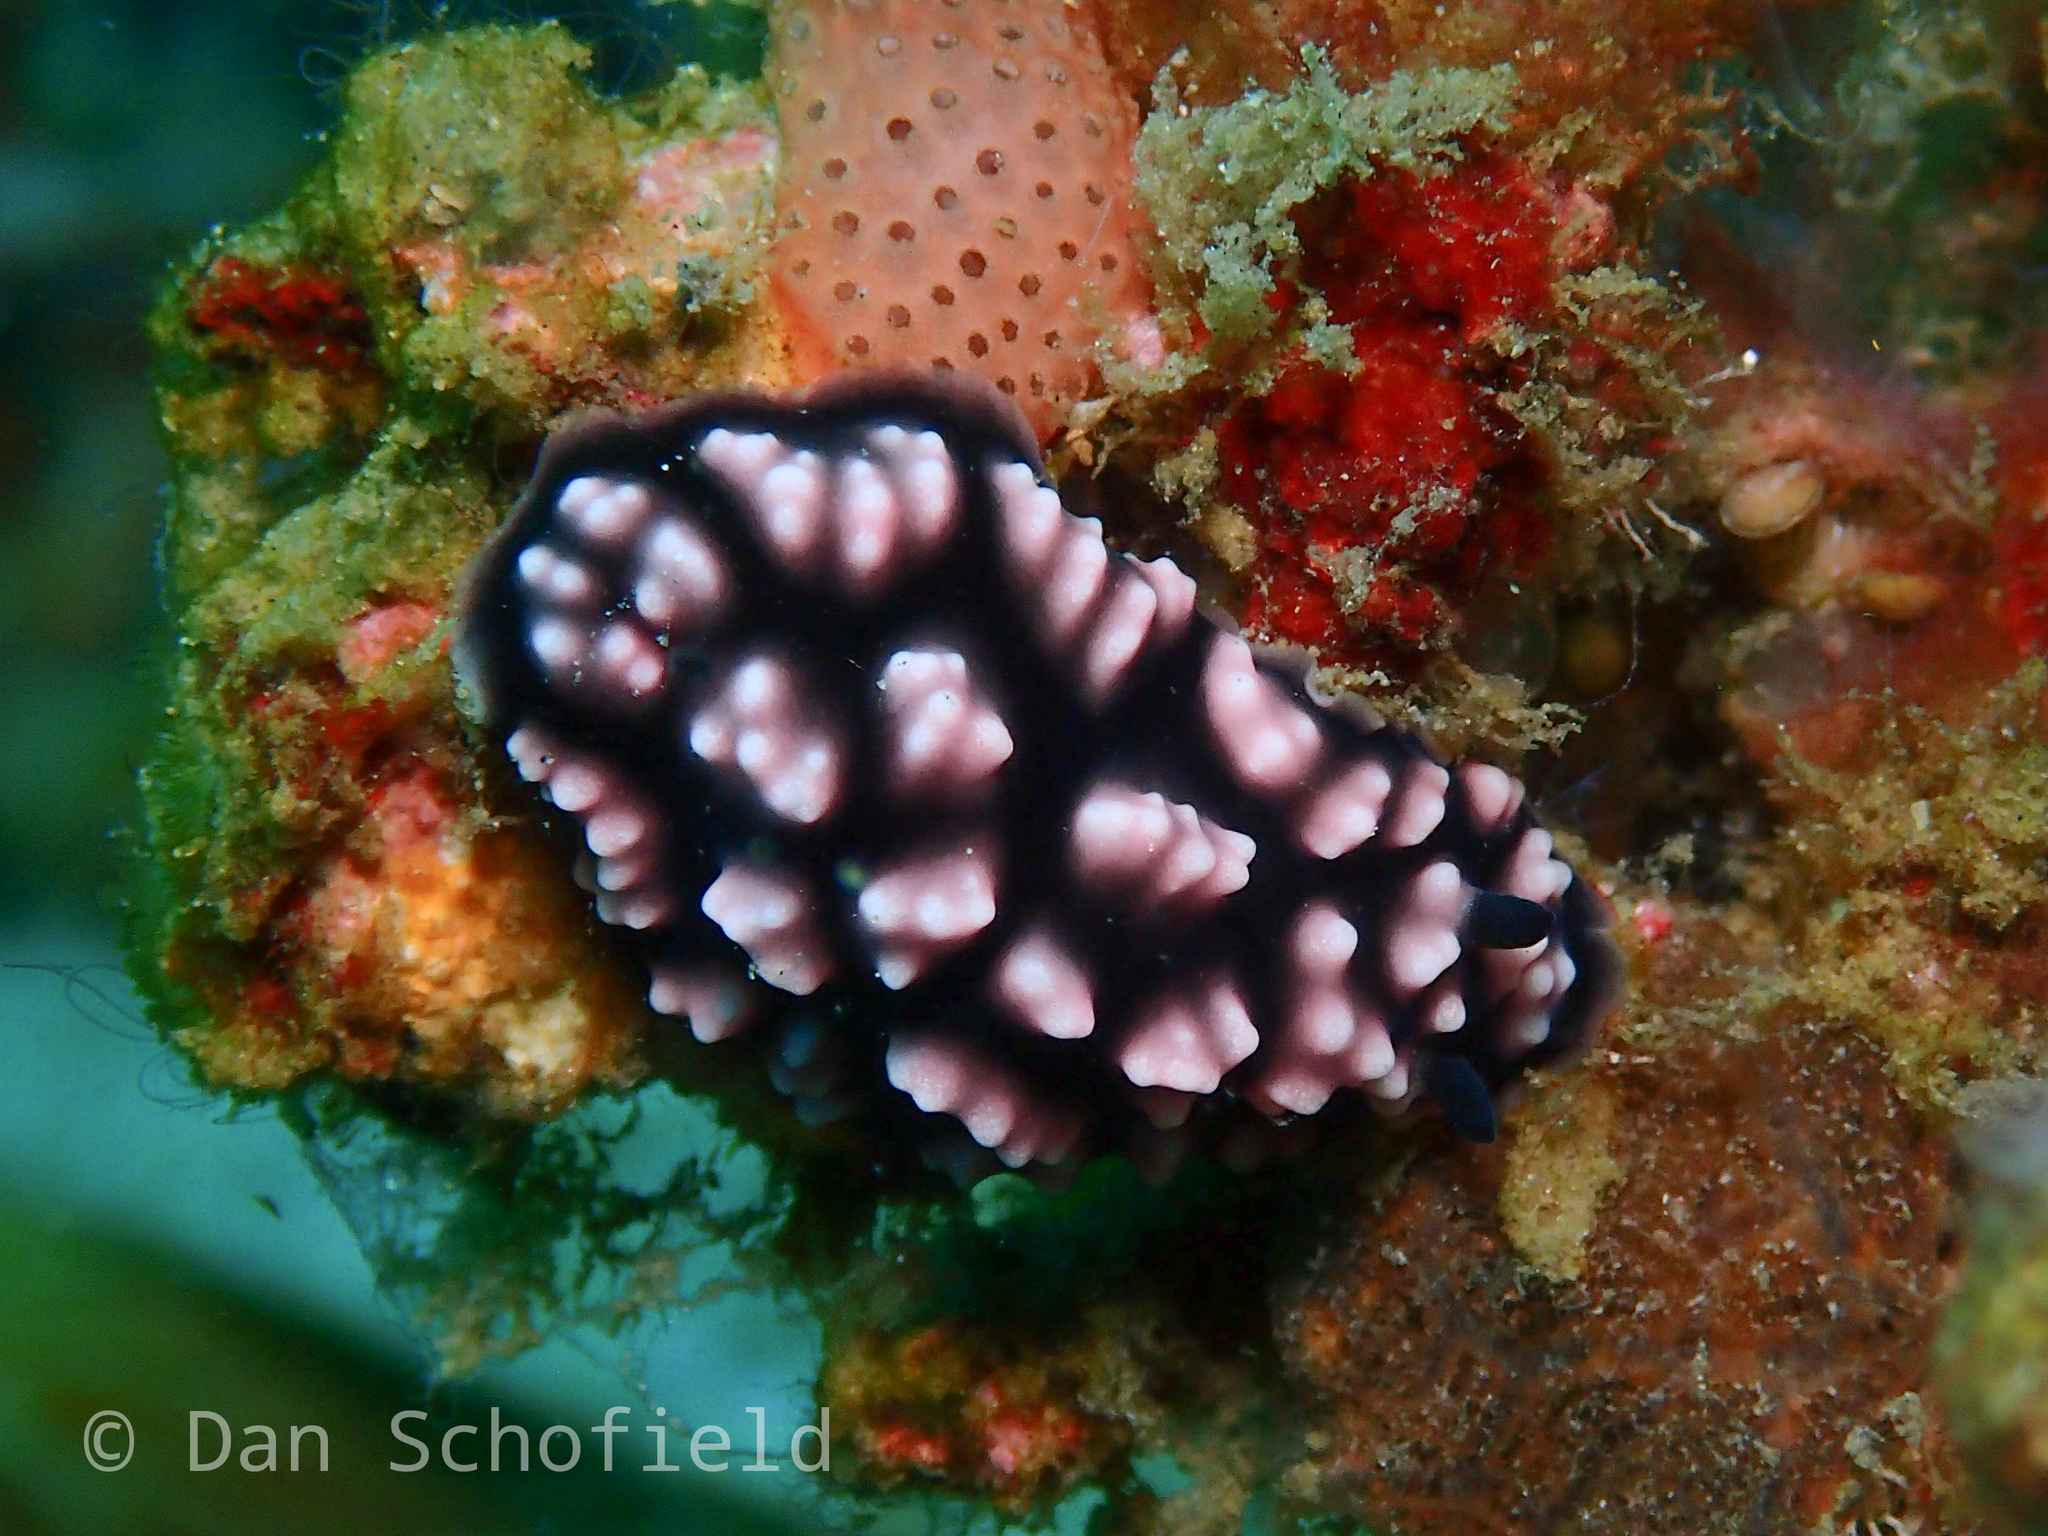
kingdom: Animalia
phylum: Mollusca
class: Gastropoda
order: Nudibranchia
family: Phyllidiidae
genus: Phyllidiella
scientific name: Phyllidiella pustulosa
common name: Pustular phyllidia
